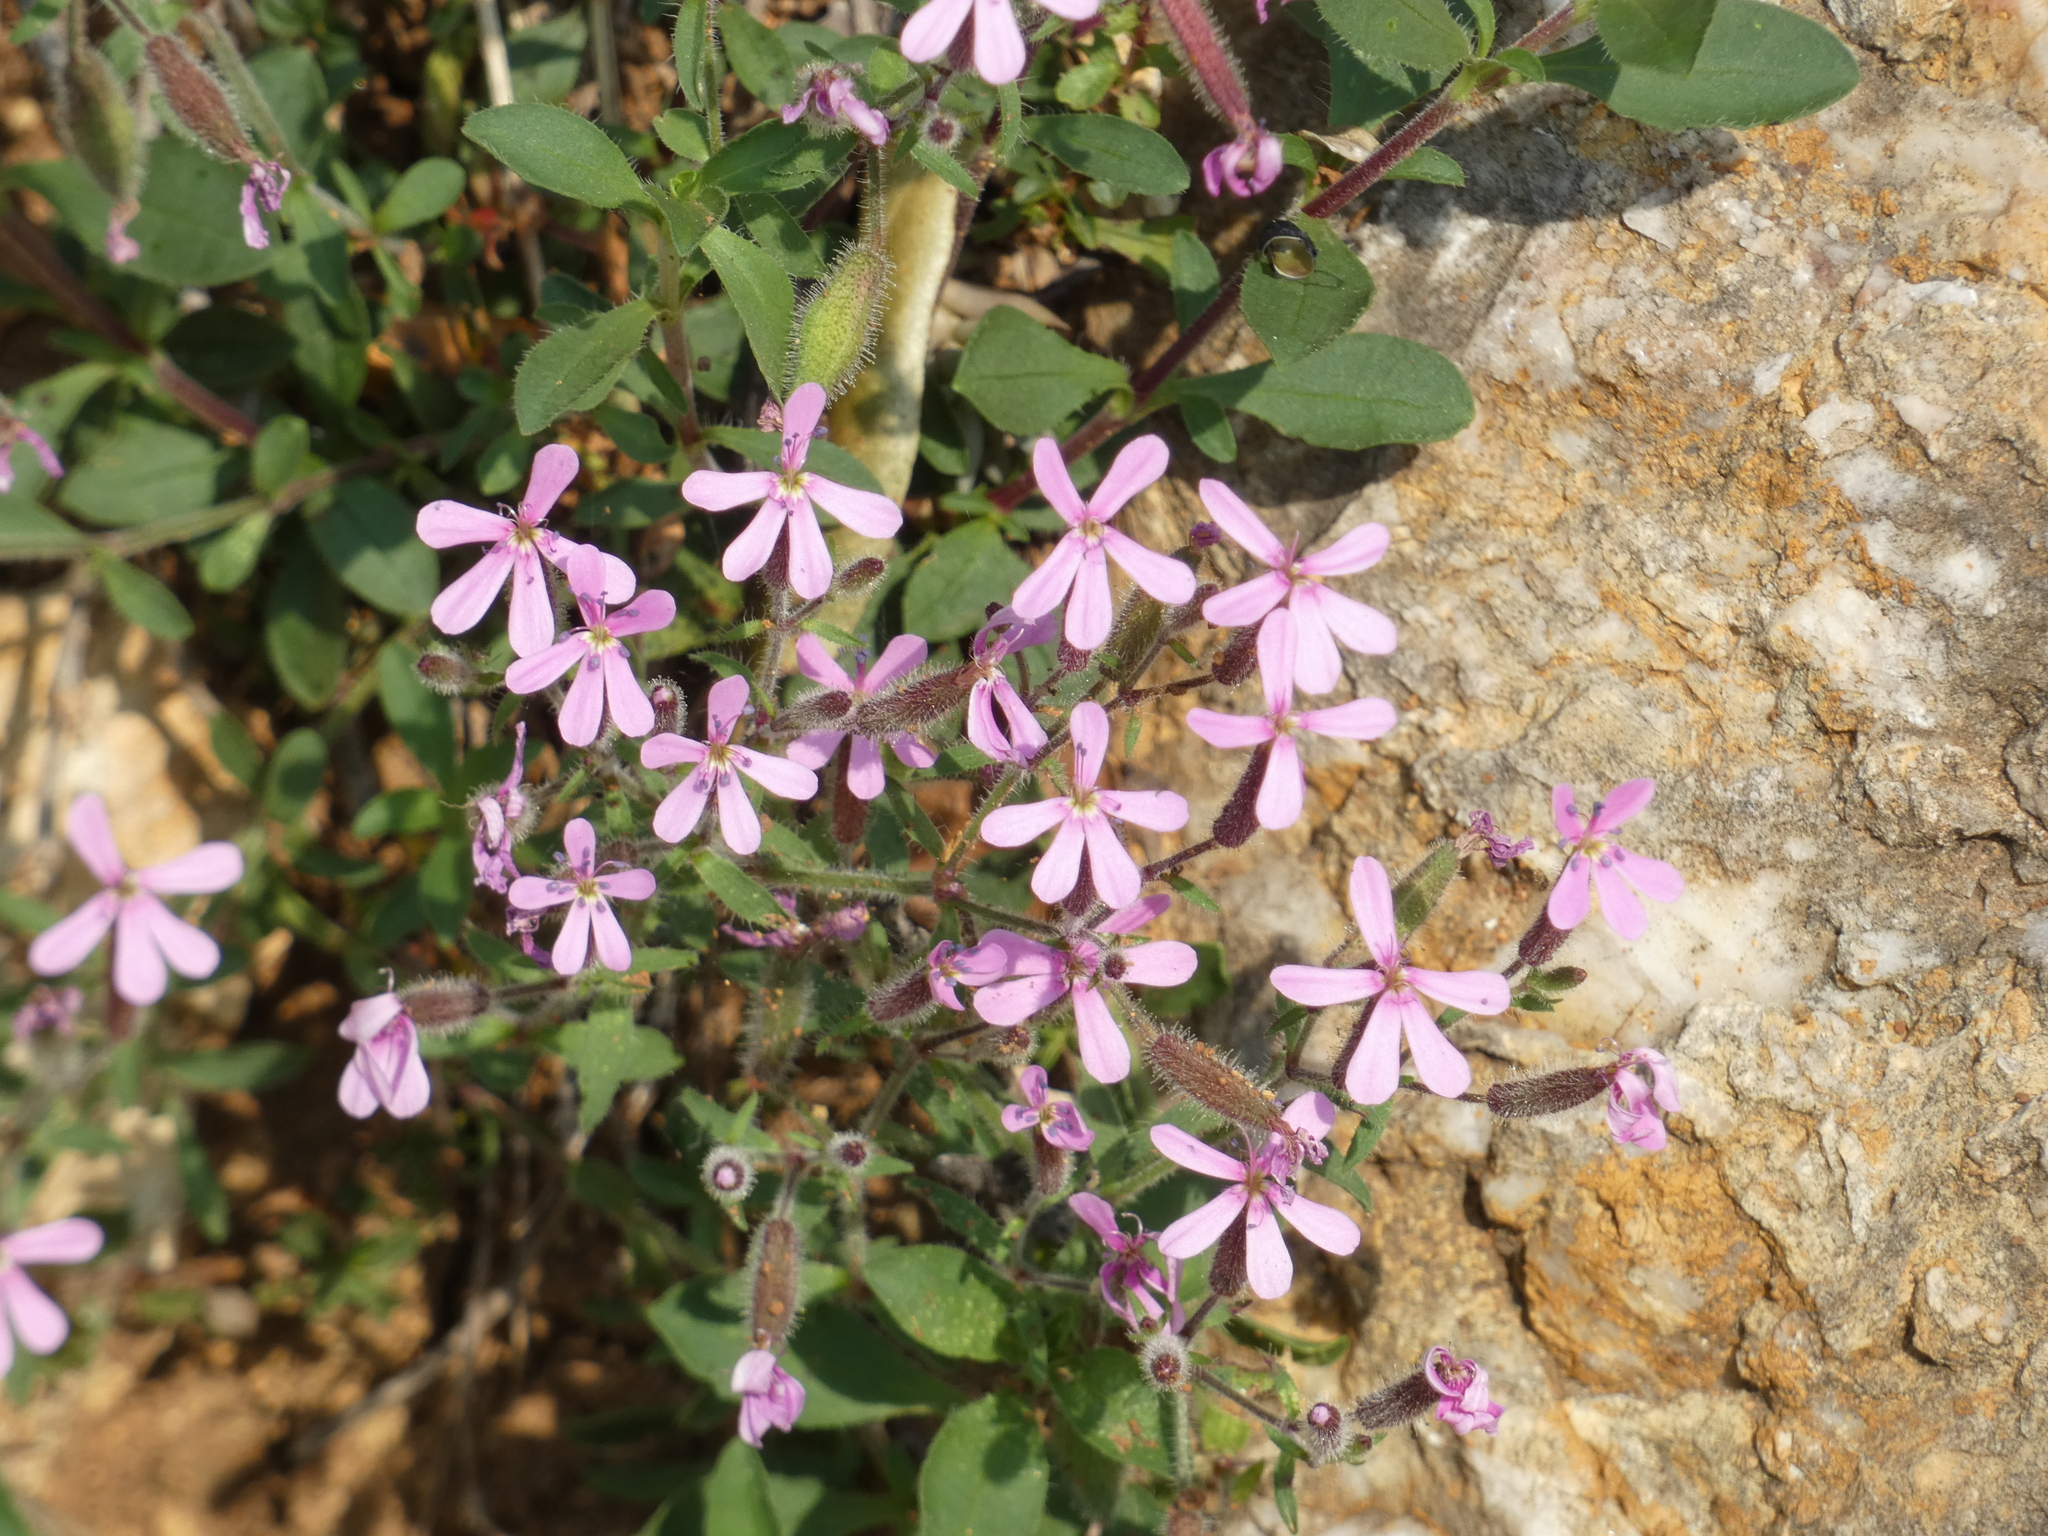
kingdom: Plantae
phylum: Tracheophyta
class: Magnoliopsida
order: Caryophyllales
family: Caryophyllaceae
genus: Saponaria
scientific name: Saponaria ocymoides
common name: Rock soapwort
